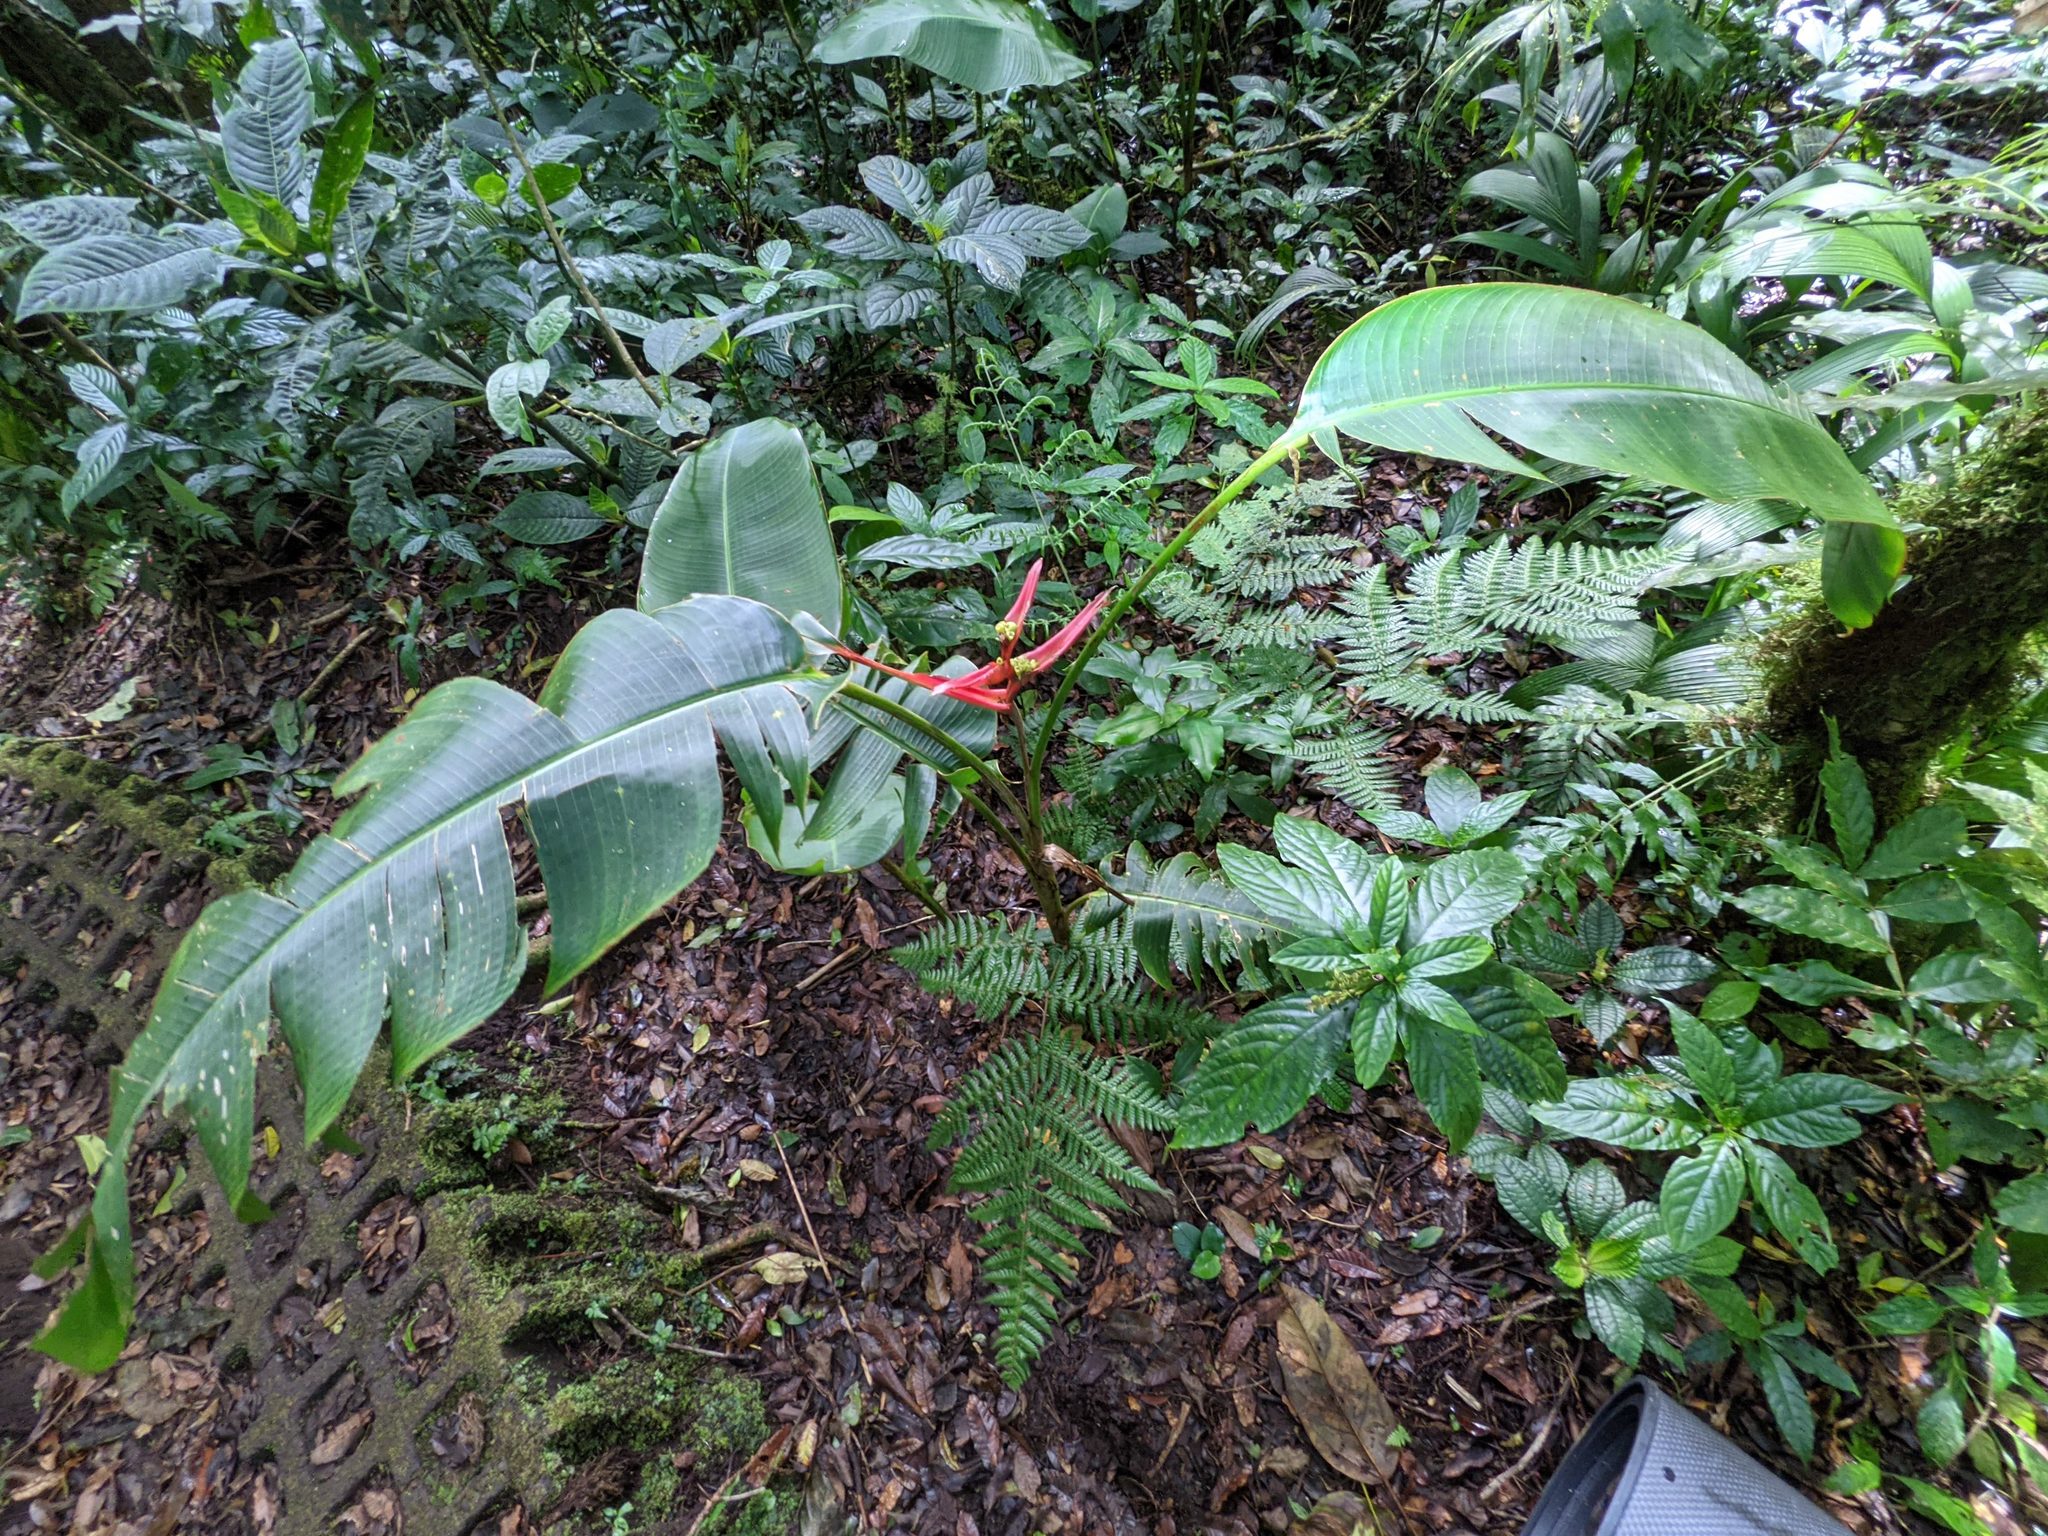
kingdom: Plantae
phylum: Tracheophyta
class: Liliopsida
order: Zingiberales
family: Heliconiaceae
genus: Heliconia
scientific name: Heliconia monteverdensis
